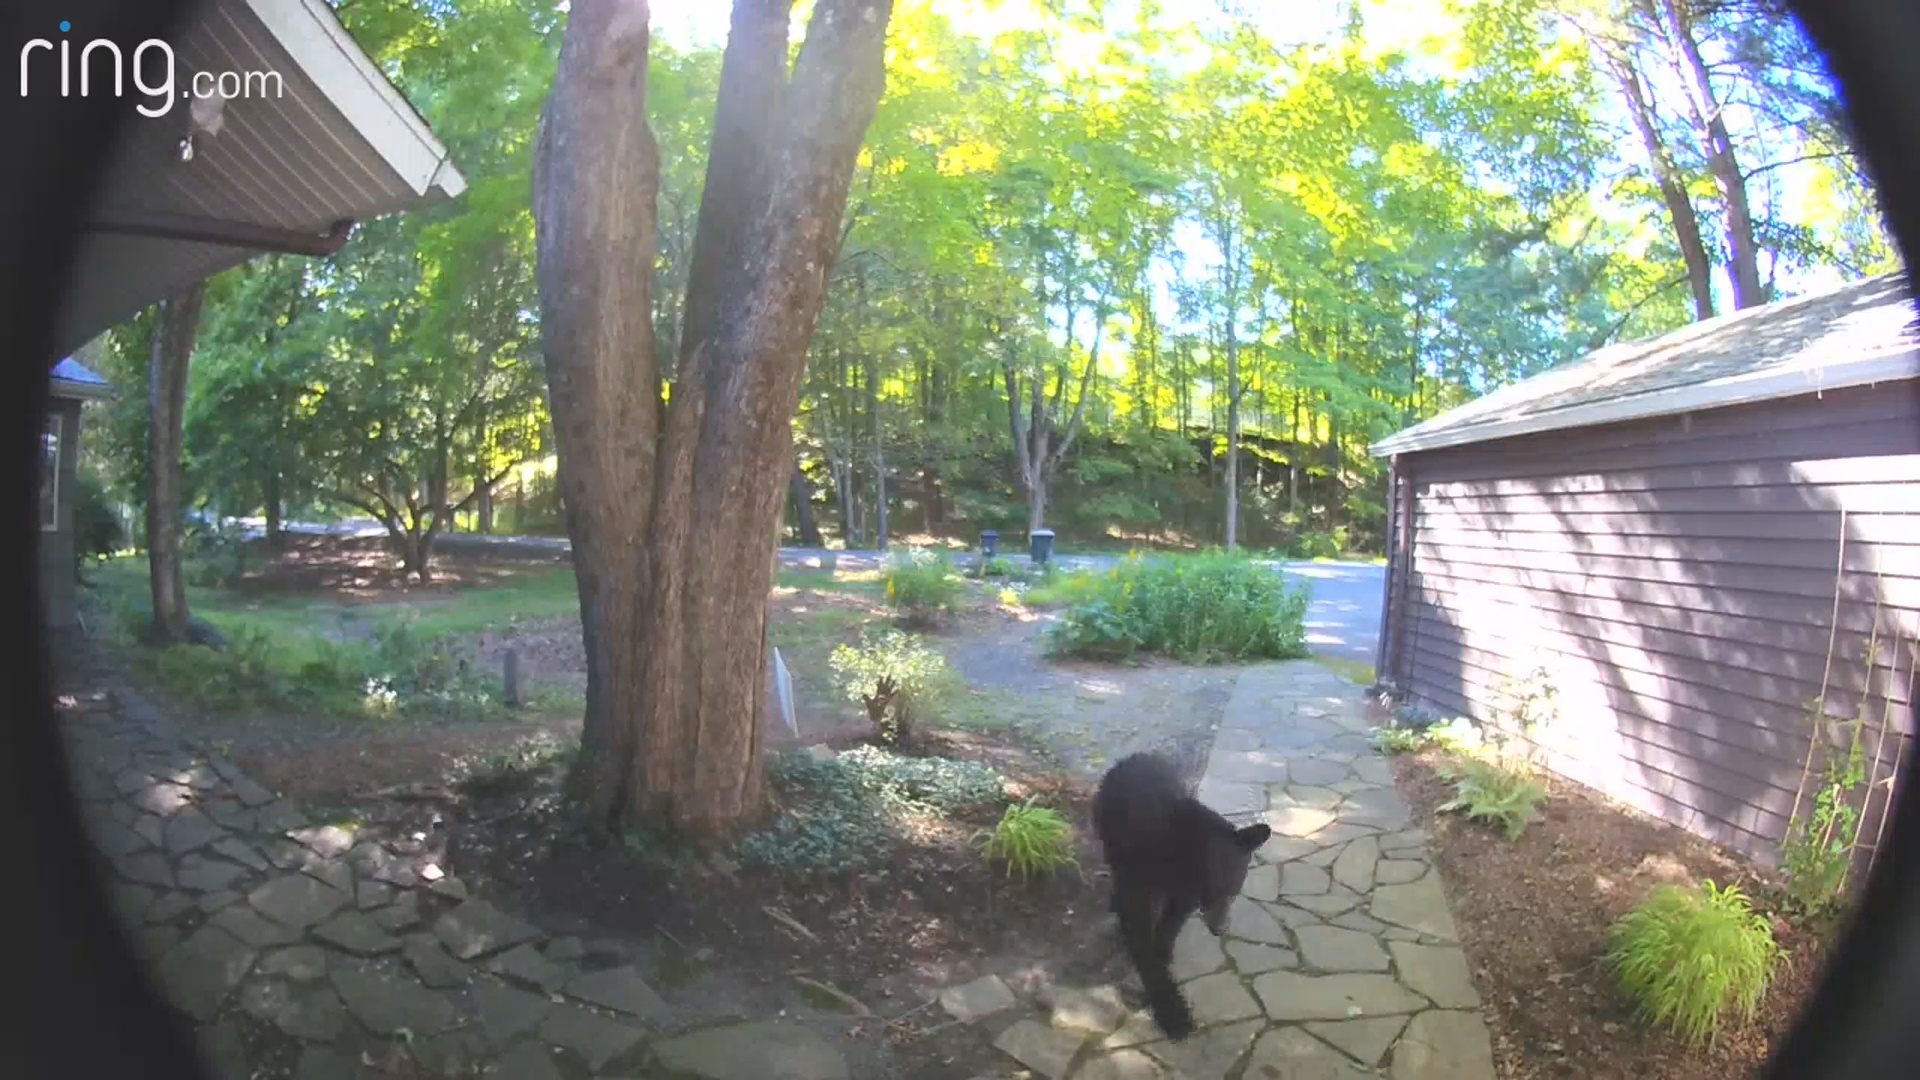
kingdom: Animalia
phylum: Chordata
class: Mammalia
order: Carnivora
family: Ursidae
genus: Ursus
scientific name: Ursus americanus
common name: American black bear
